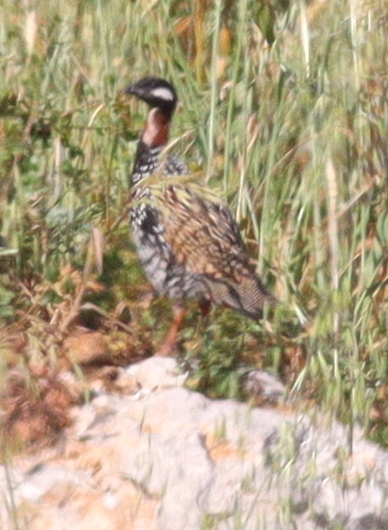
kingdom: Animalia
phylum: Chordata
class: Aves
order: Galliformes
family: Phasianidae
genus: Francolinus
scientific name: Francolinus francolinus
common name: Black francolin
